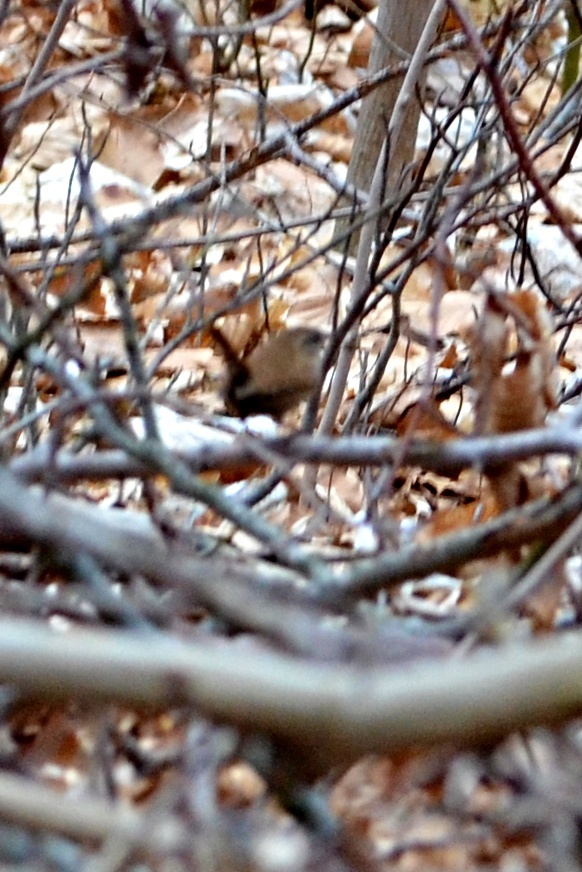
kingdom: Animalia
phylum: Chordata
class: Aves
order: Passeriformes
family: Troglodytidae
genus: Troglodytes
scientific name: Troglodytes troglodytes
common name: Eurasian wren
